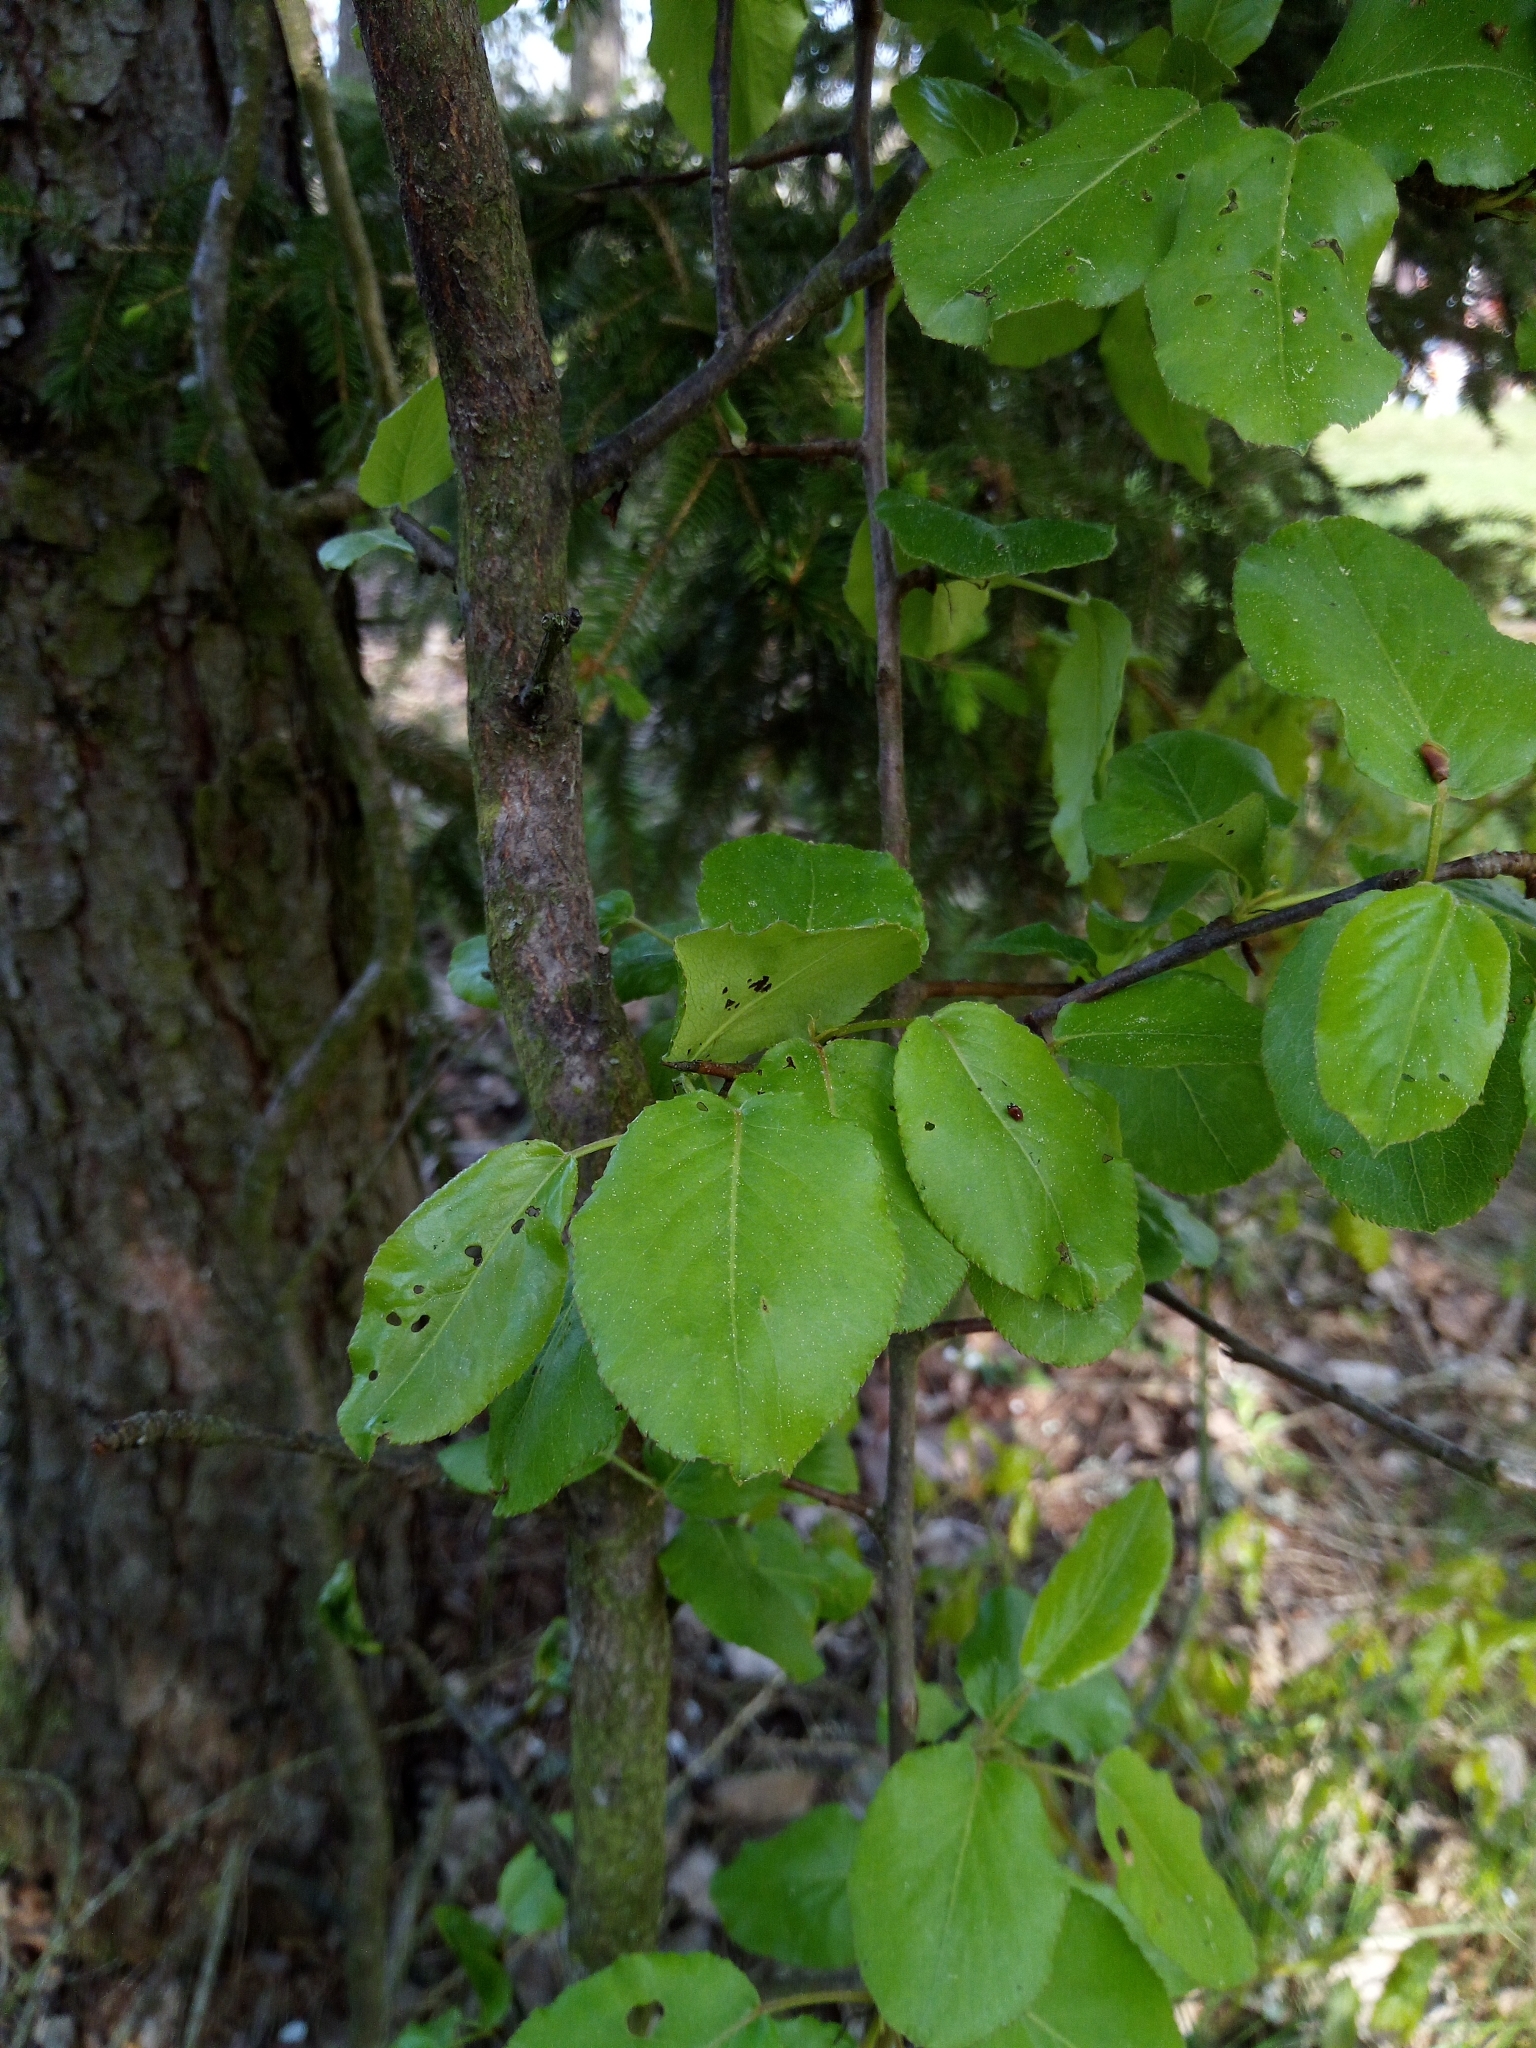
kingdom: Plantae
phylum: Tracheophyta
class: Magnoliopsida
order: Rosales
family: Rosaceae
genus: Pyrus
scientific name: Pyrus communis
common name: Pear
